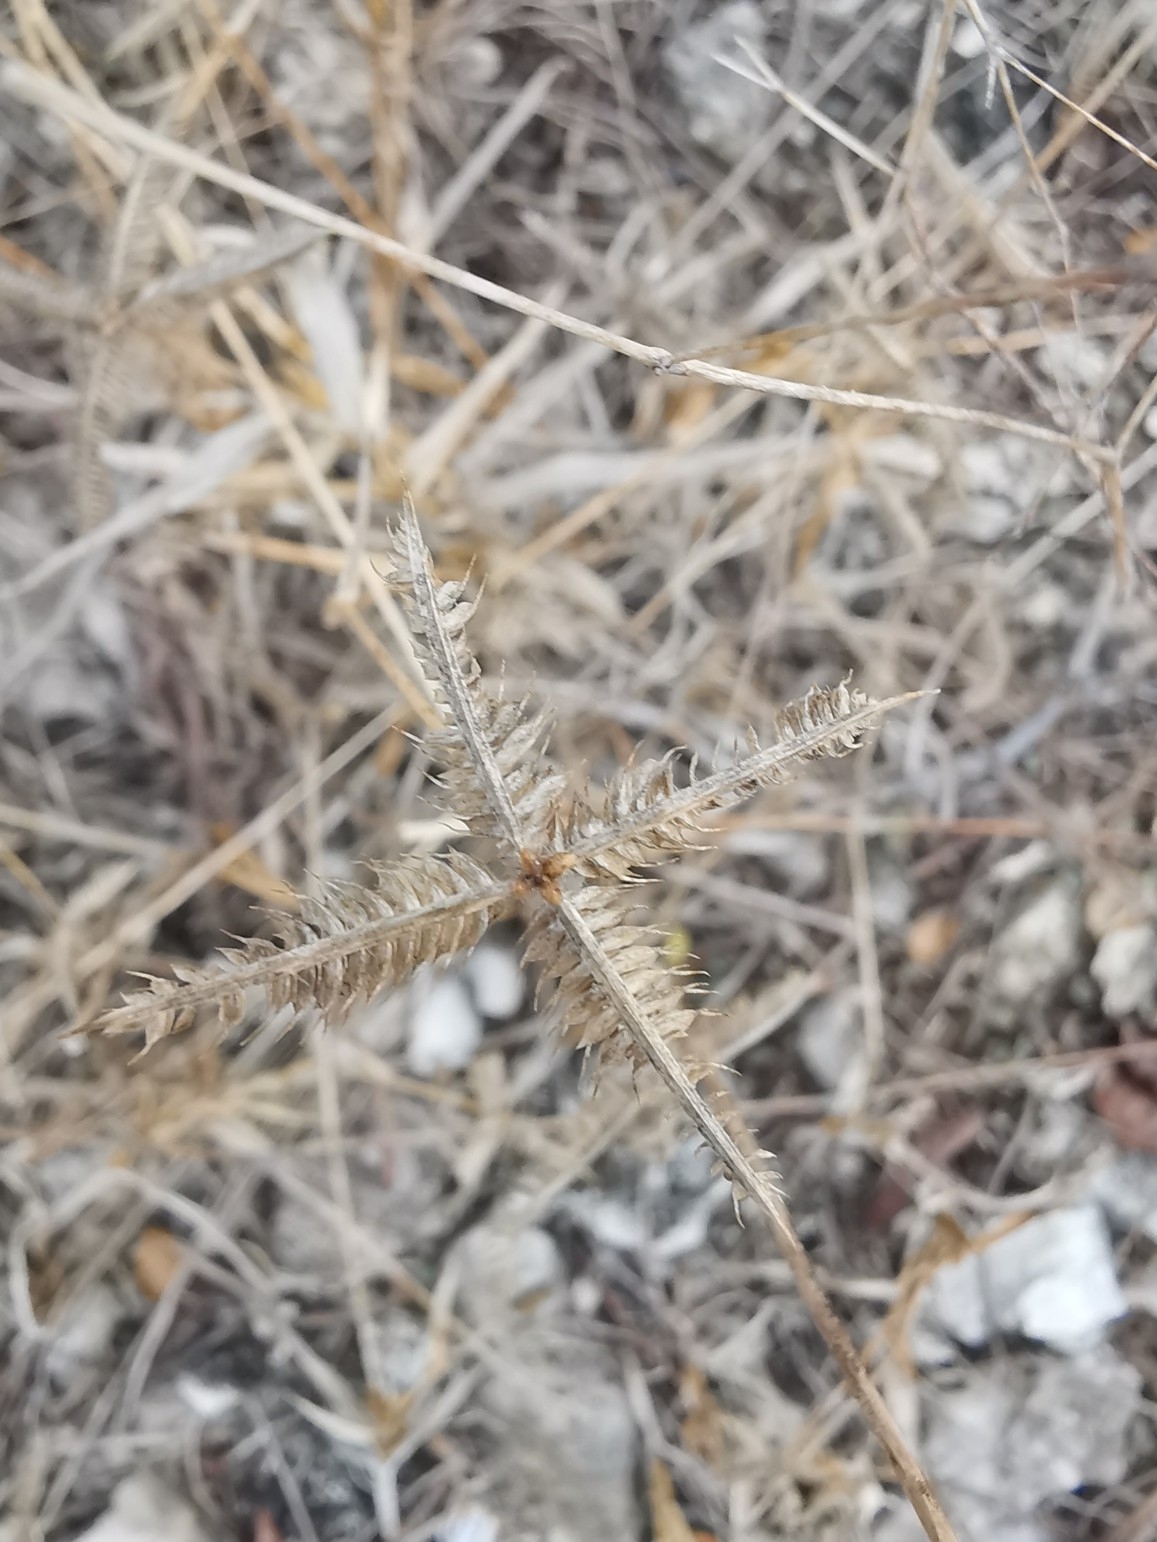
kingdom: Plantae
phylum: Tracheophyta
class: Liliopsida
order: Poales
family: Poaceae
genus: Dactyloctenium
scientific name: Dactyloctenium aegyptium
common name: Egyptian grass
